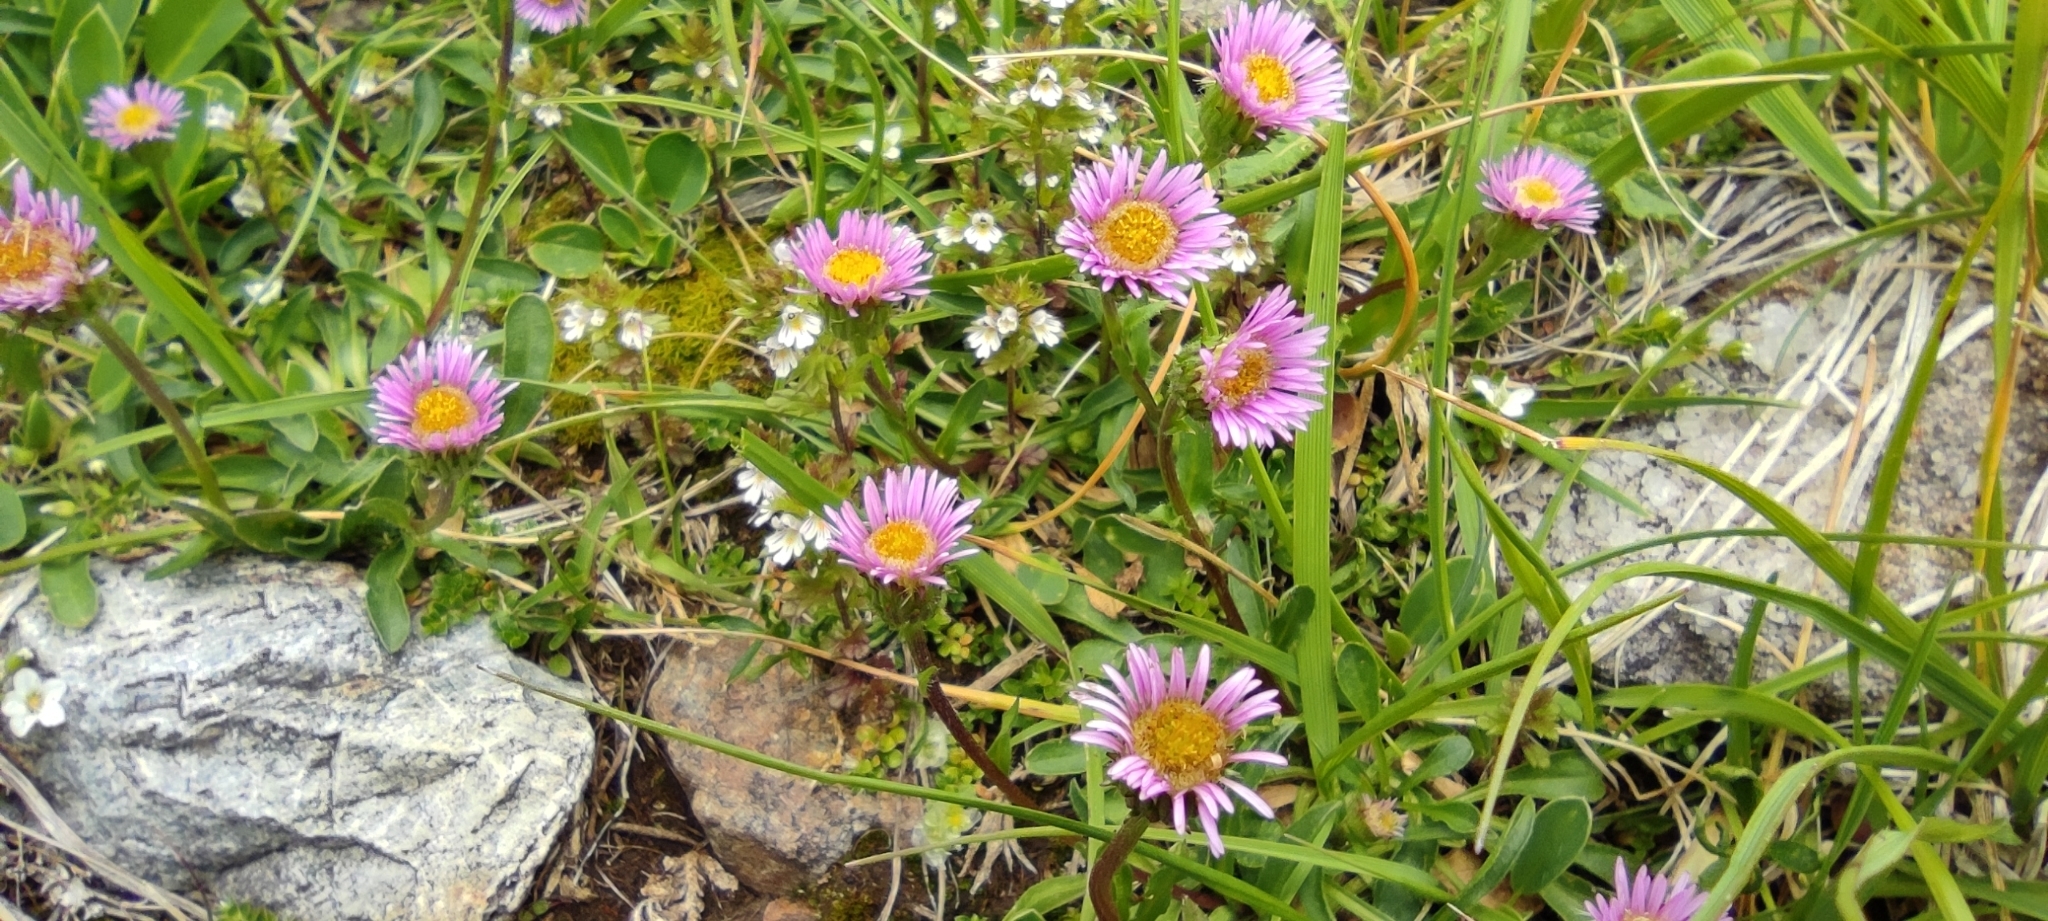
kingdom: Plantae
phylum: Tracheophyta
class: Magnoliopsida
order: Asterales
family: Asteraceae
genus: Erigeron
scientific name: Erigeron alpinus
